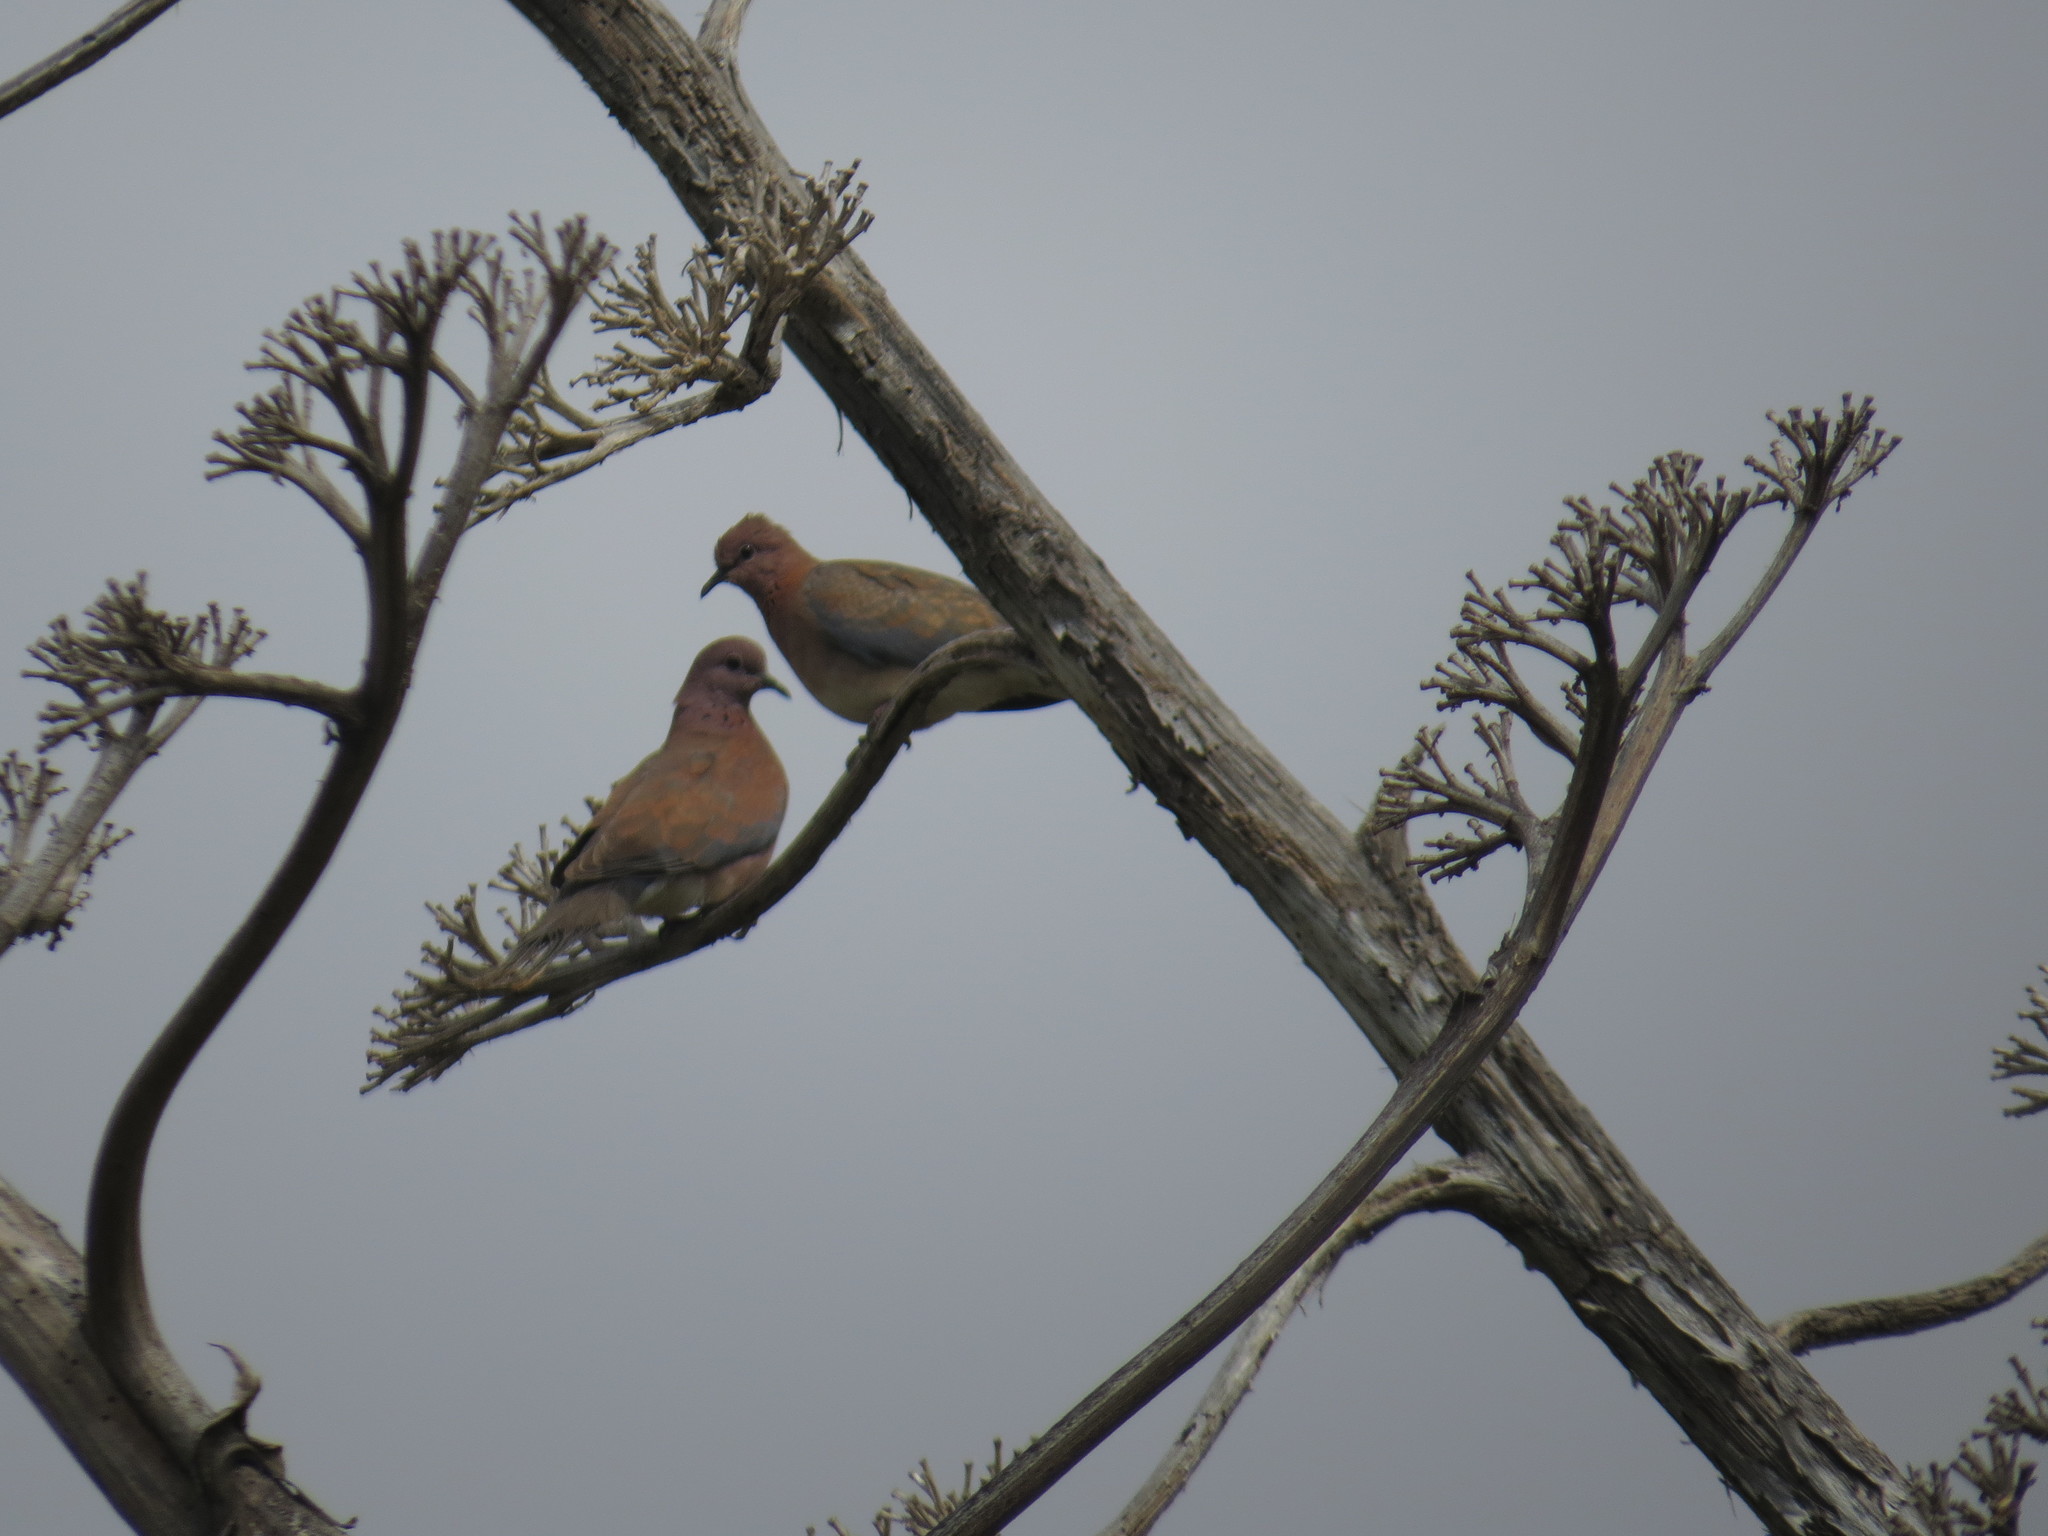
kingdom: Animalia
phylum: Chordata
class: Aves
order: Columbiformes
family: Columbidae
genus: Spilopelia
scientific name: Spilopelia senegalensis
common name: Laughing dove
